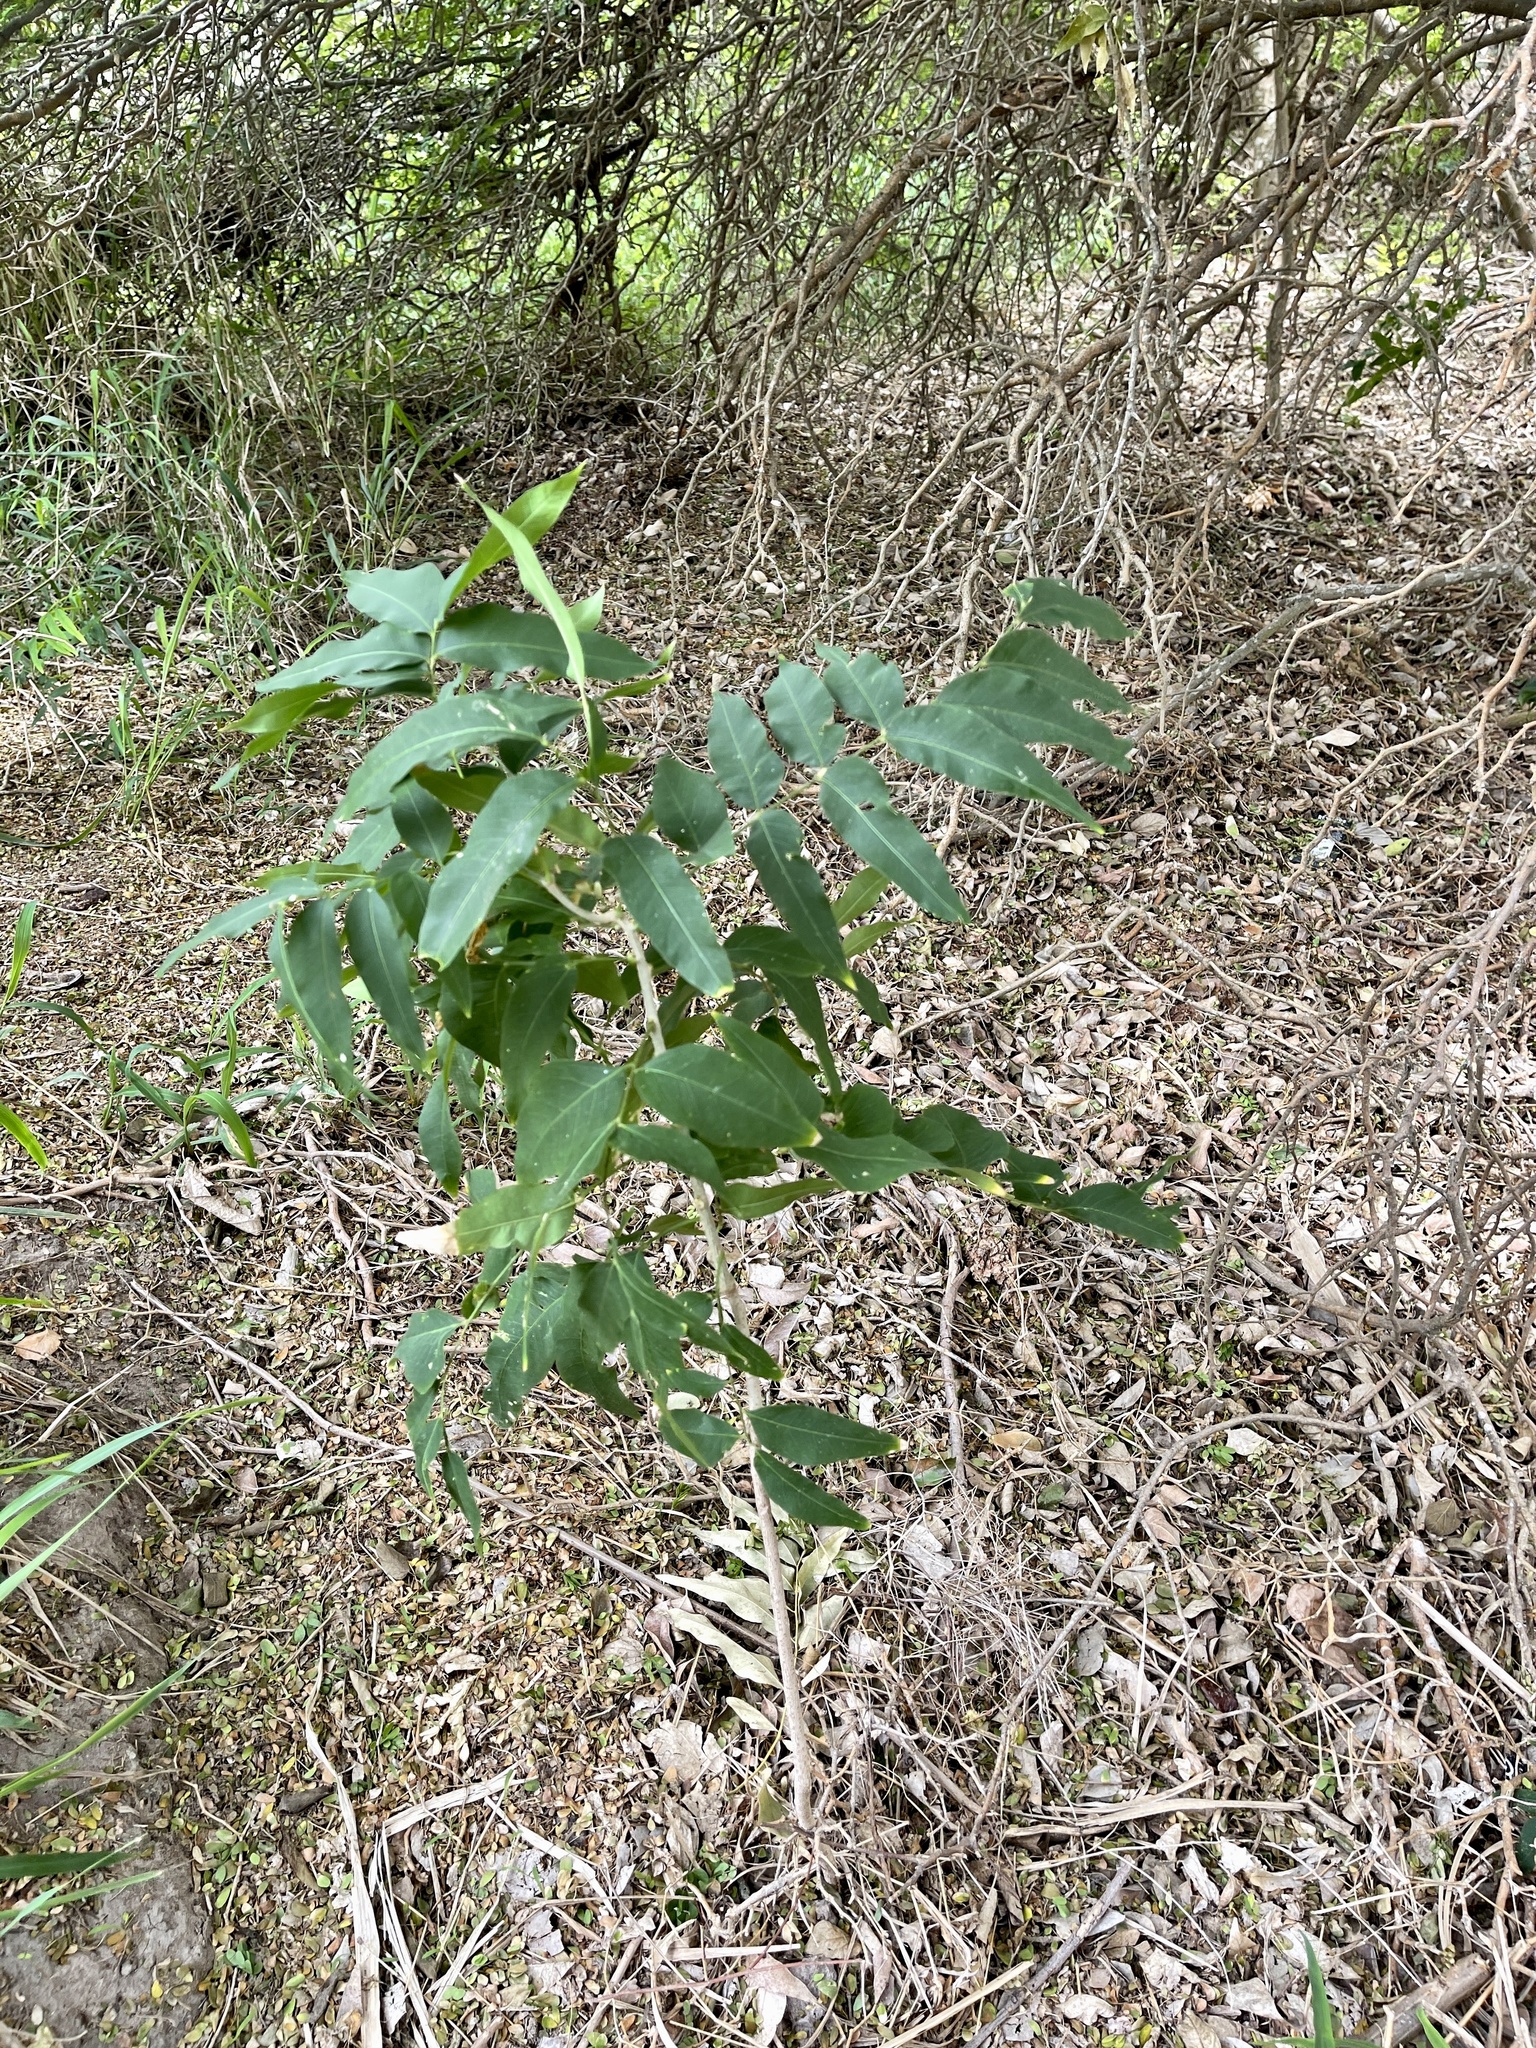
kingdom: Plantae
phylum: Tracheophyta
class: Magnoliopsida
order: Sapindales
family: Sapindaceae
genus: Sapindus
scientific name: Sapindus drummondii
